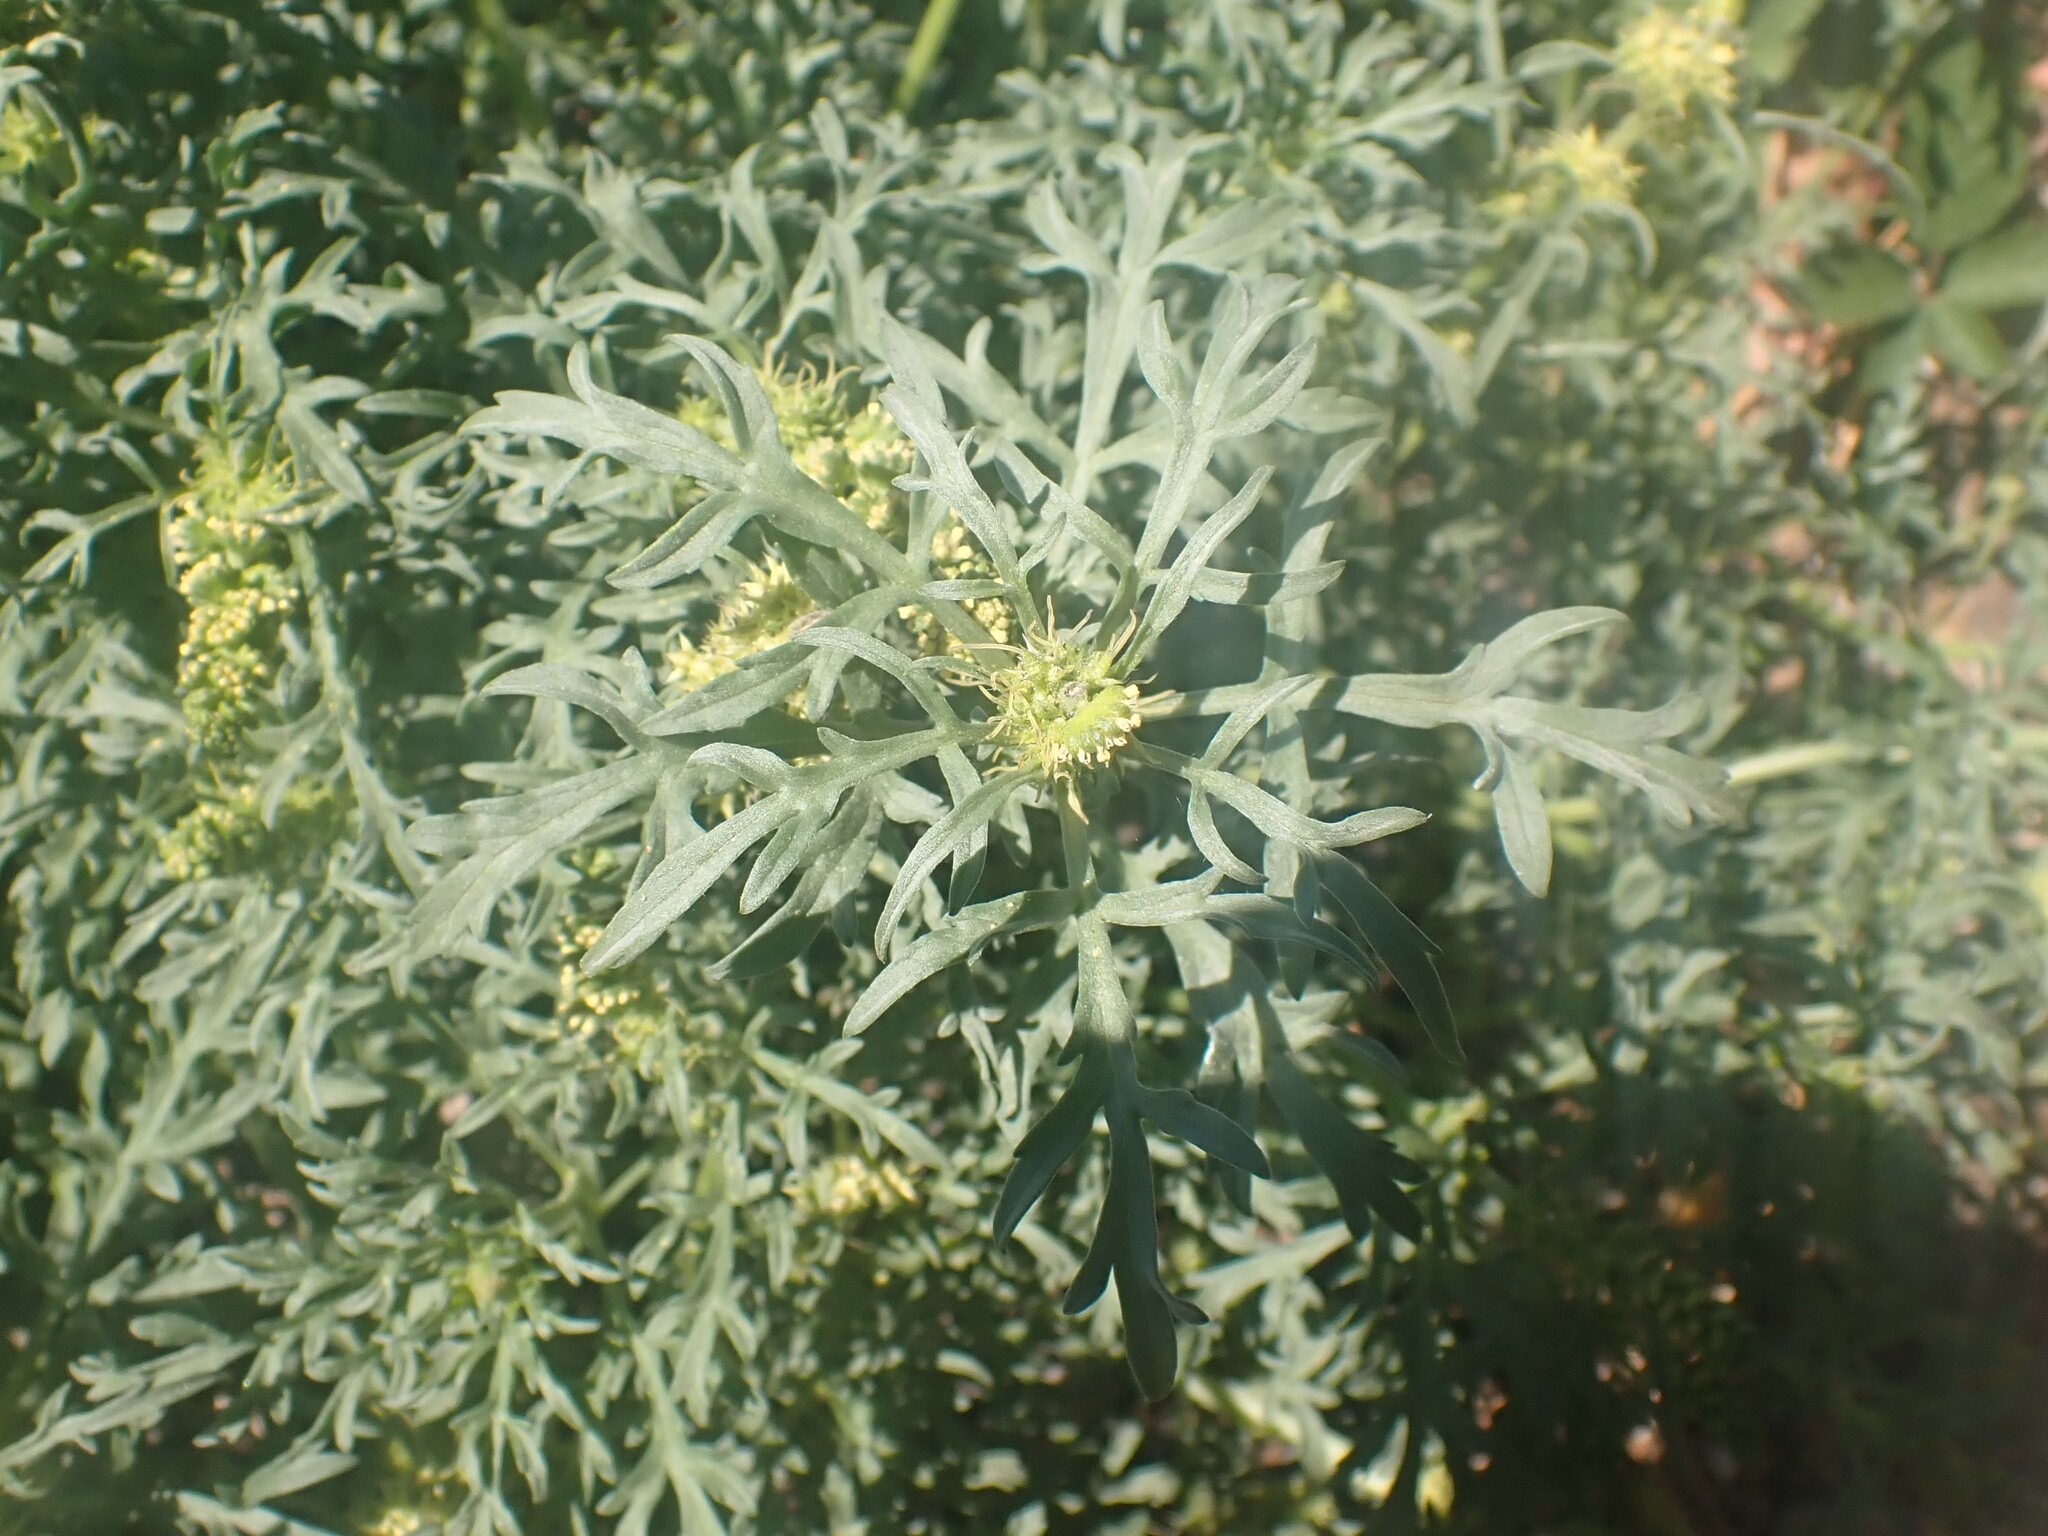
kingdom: Plantae
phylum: Tracheophyta
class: Magnoliopsida
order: Asterales
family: Asteraceae
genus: Ambrosia
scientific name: Ambrosia chamissonis
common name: Beachbur
